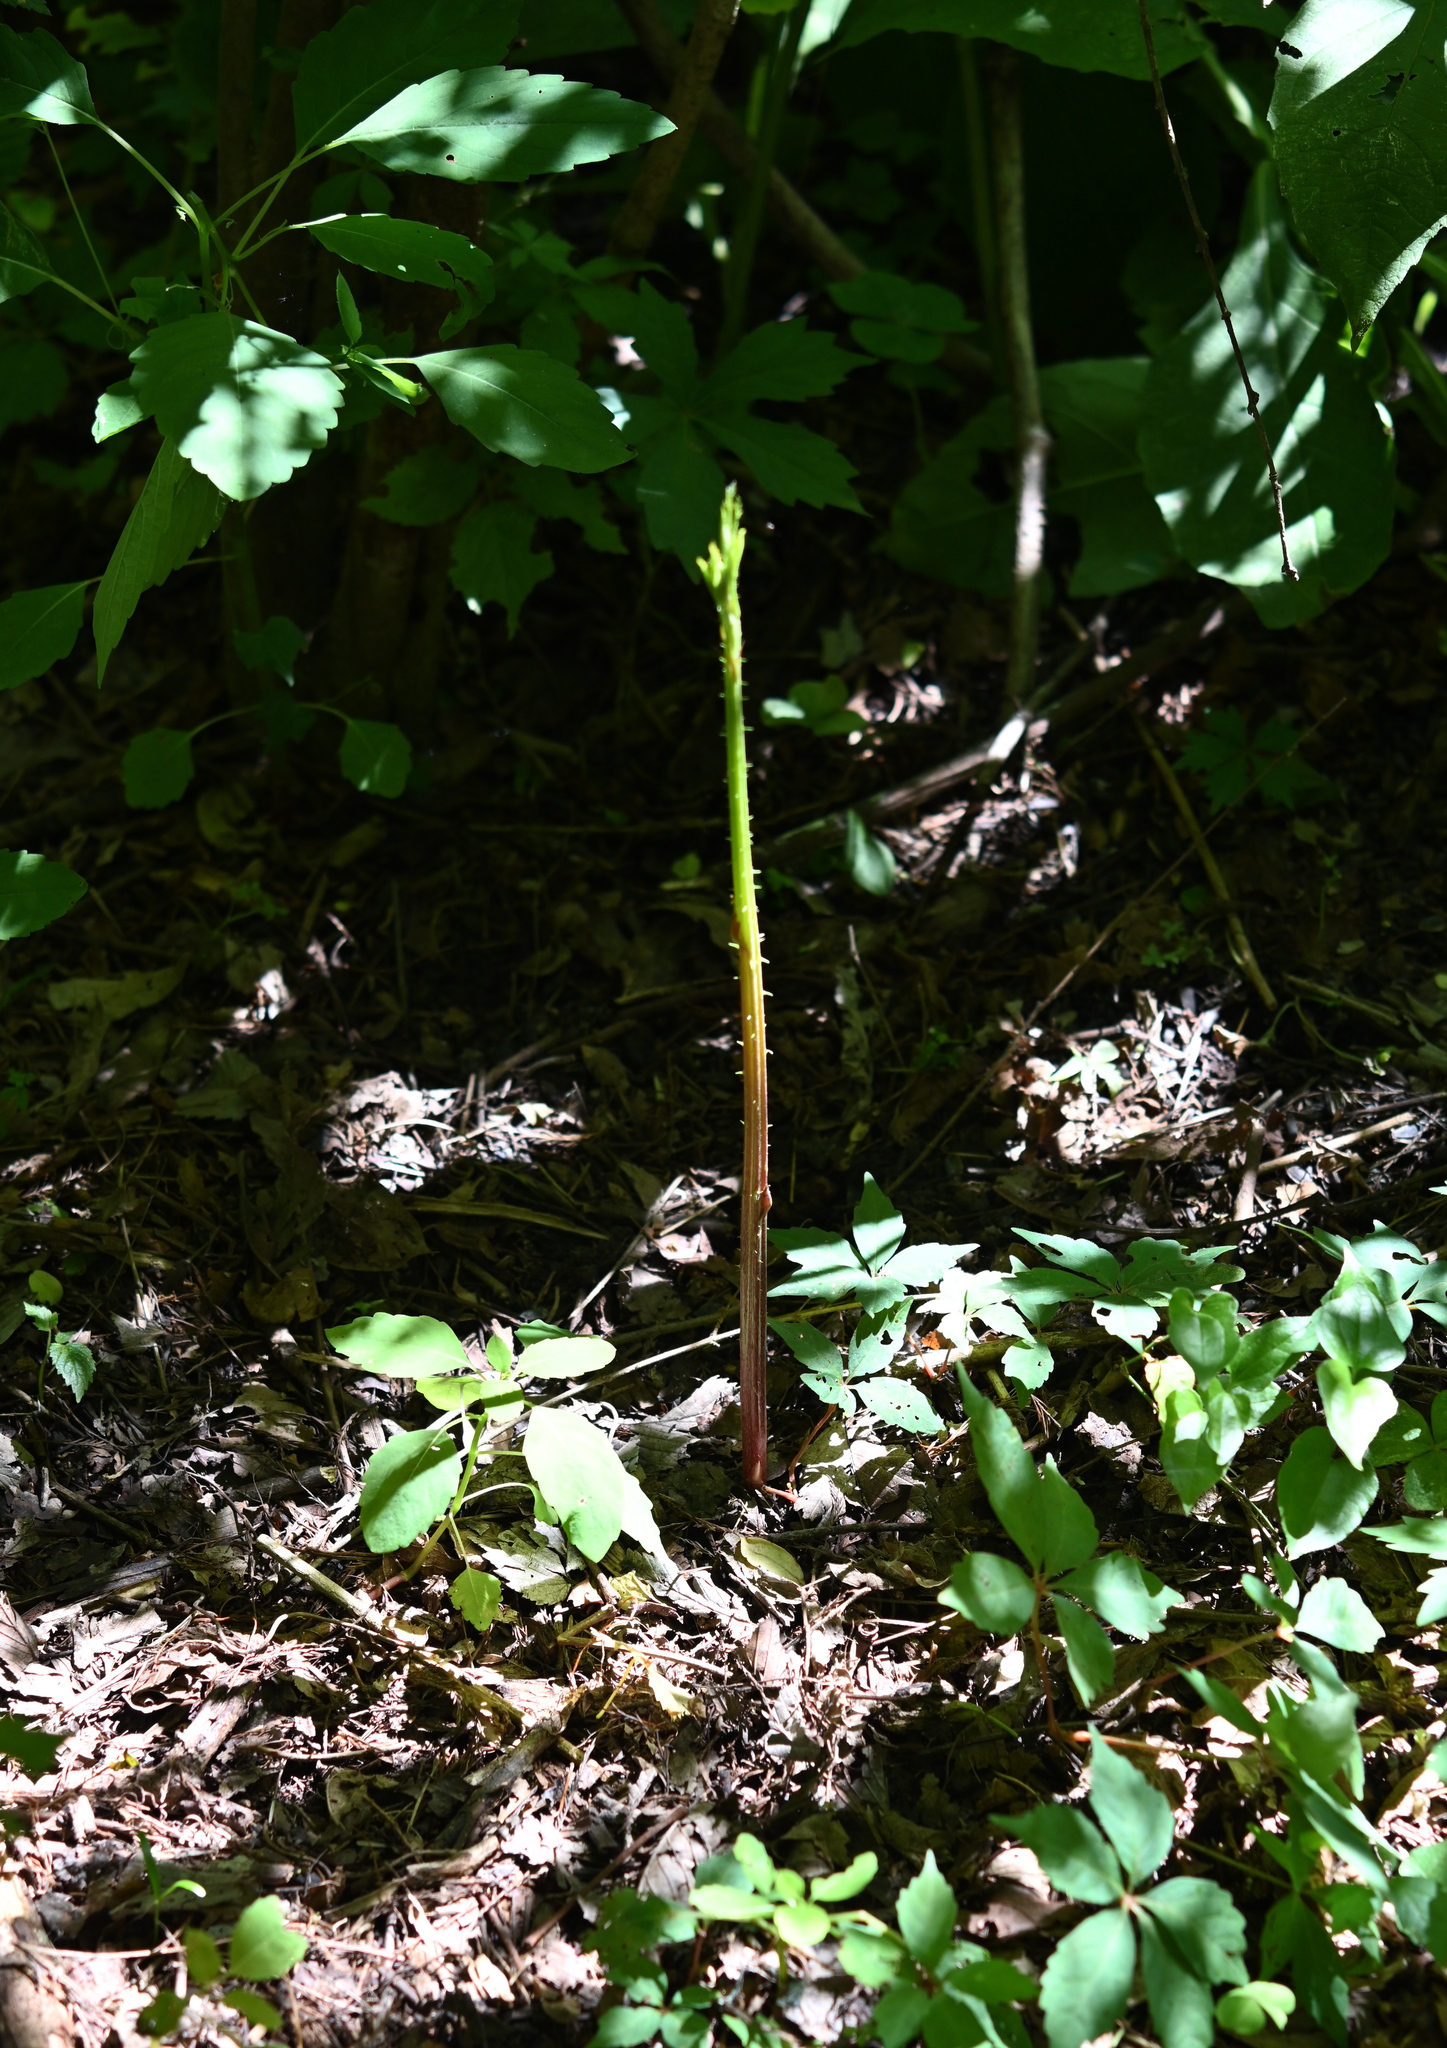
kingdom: Plantae
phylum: Tracheophyta
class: Magnoliopsida
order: Apiales
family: Araliaceae
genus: Aralia
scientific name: Aralia spinosa
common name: Hercules'-club
